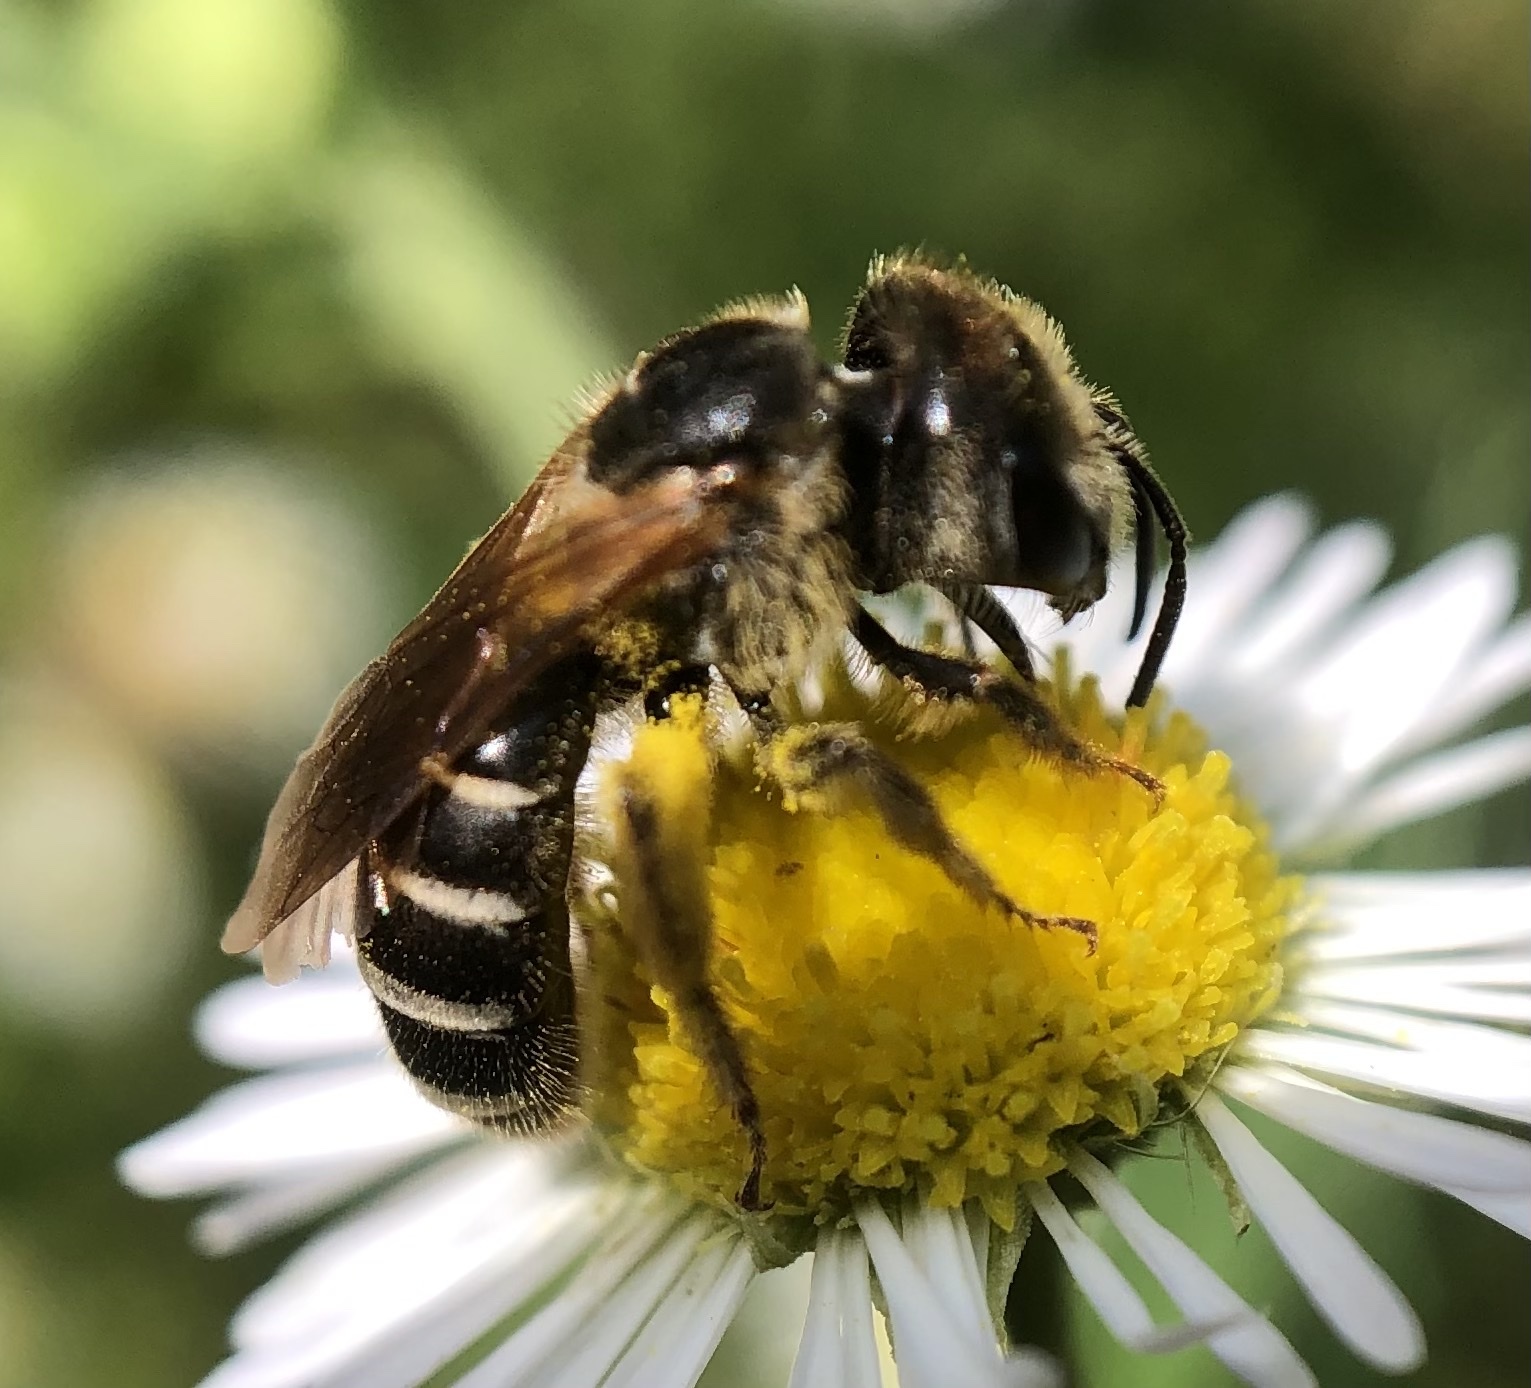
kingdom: Animalia
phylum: Arthropoda
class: Insecta
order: Hymenoptera
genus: Odontalictus
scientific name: Odontalictus
